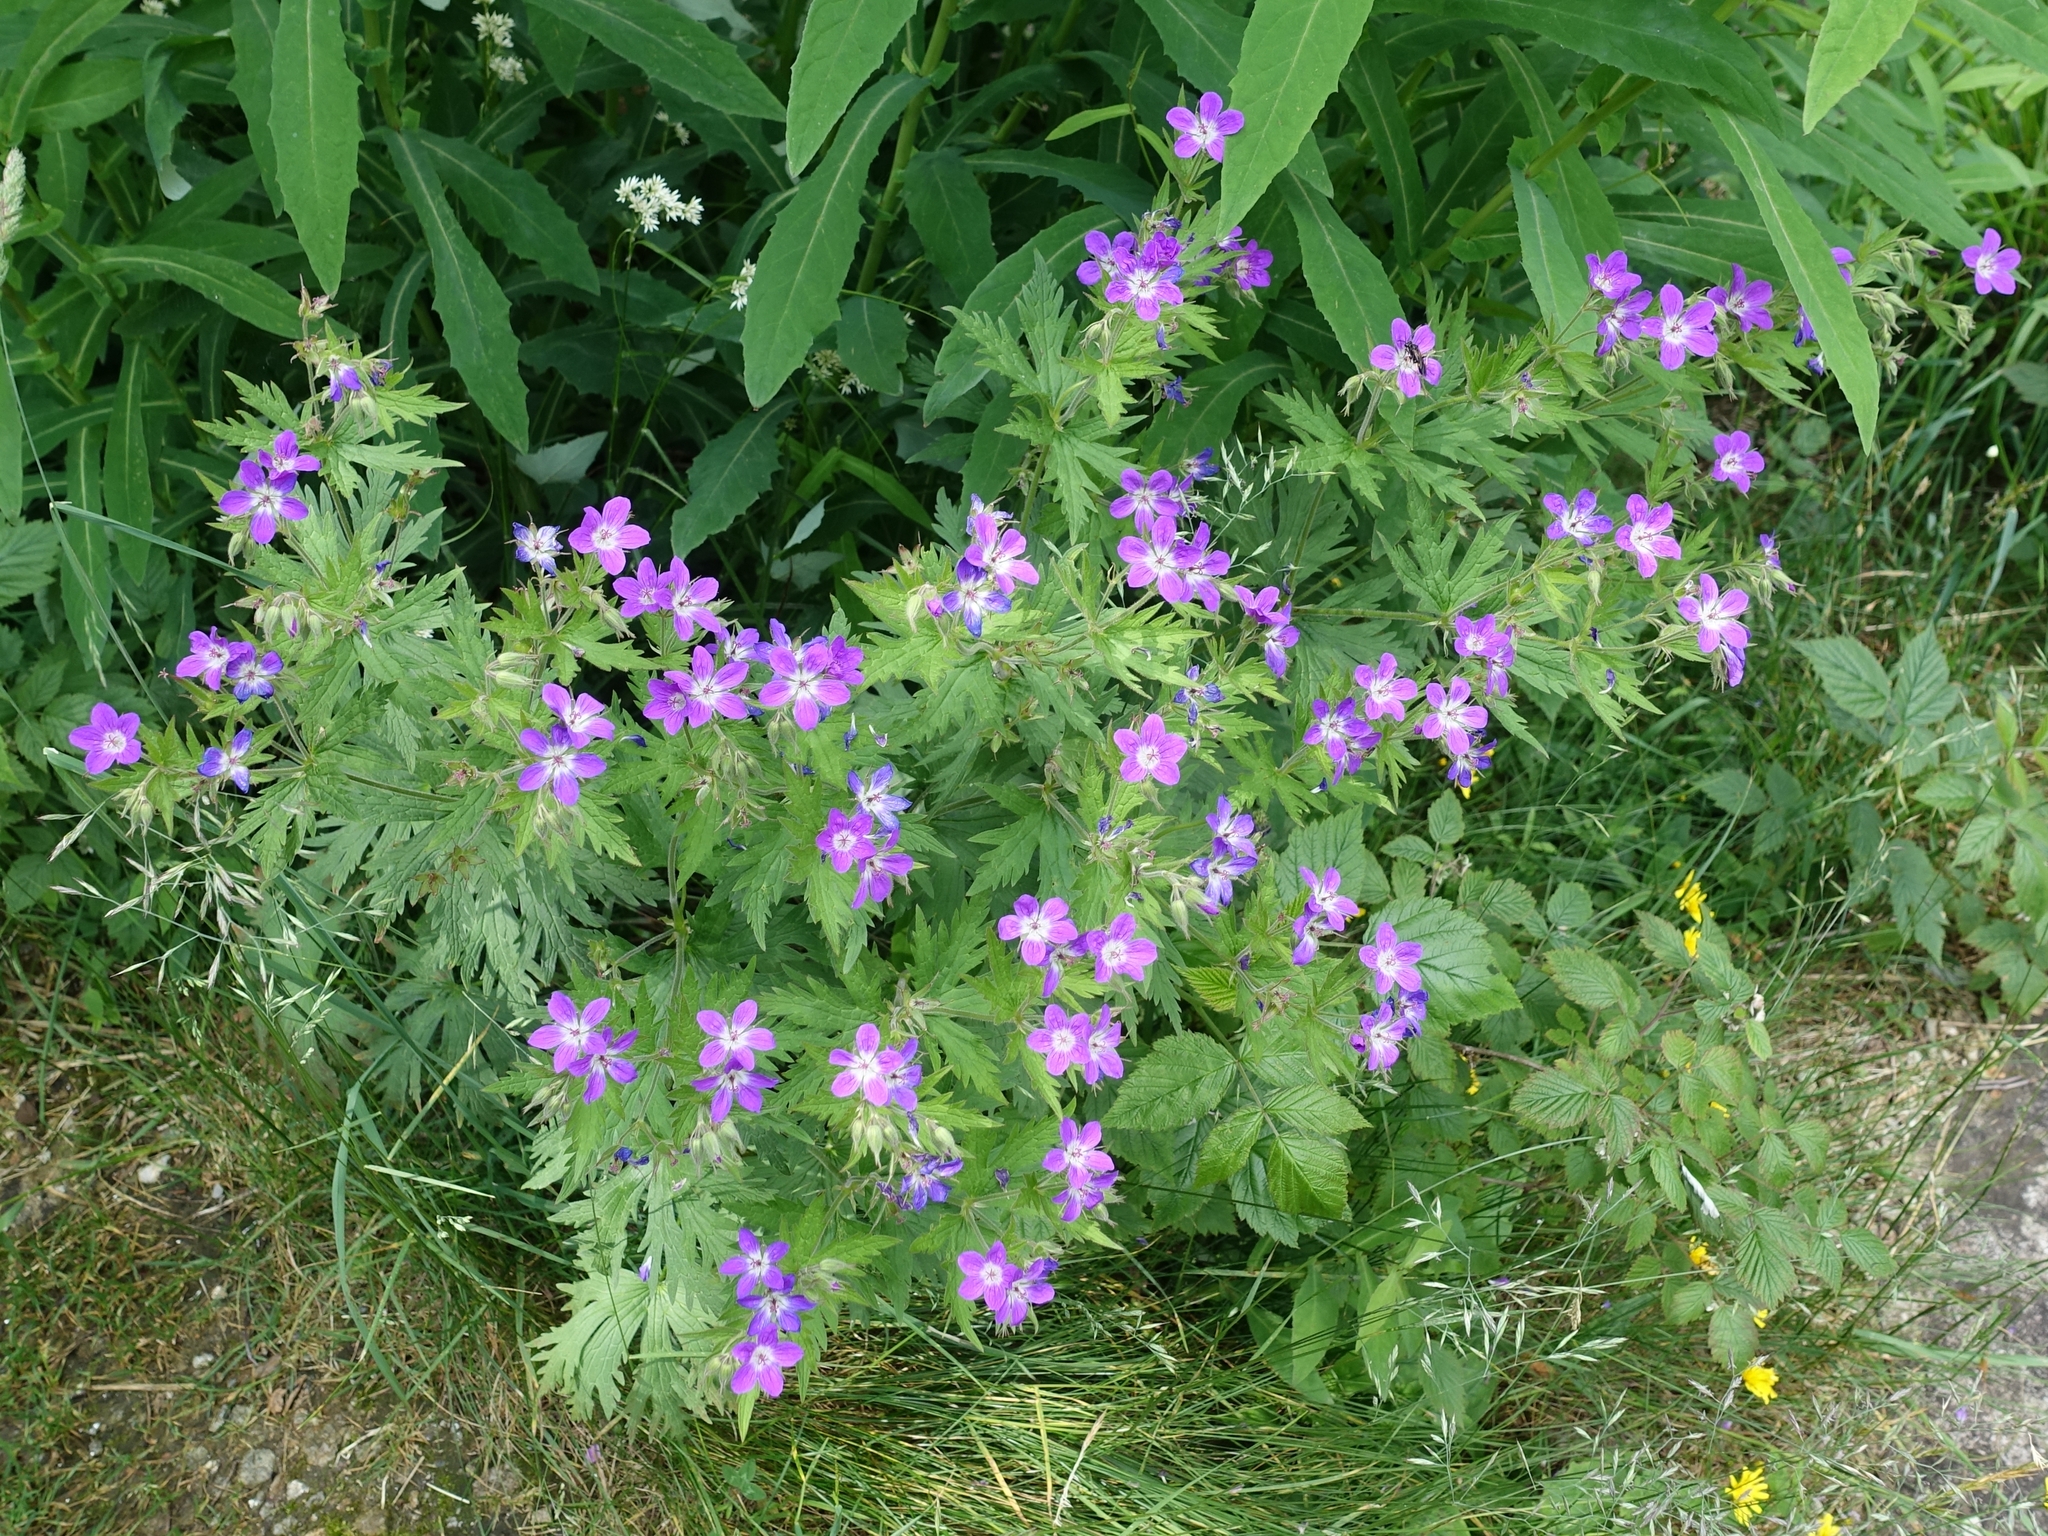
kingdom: Plantae
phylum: Tracheophyta
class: Magnoliopsida
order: Geraniales
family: Geraniaceae
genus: Geranium
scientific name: Geranium sylvaticum
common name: Wood crane's-bill
